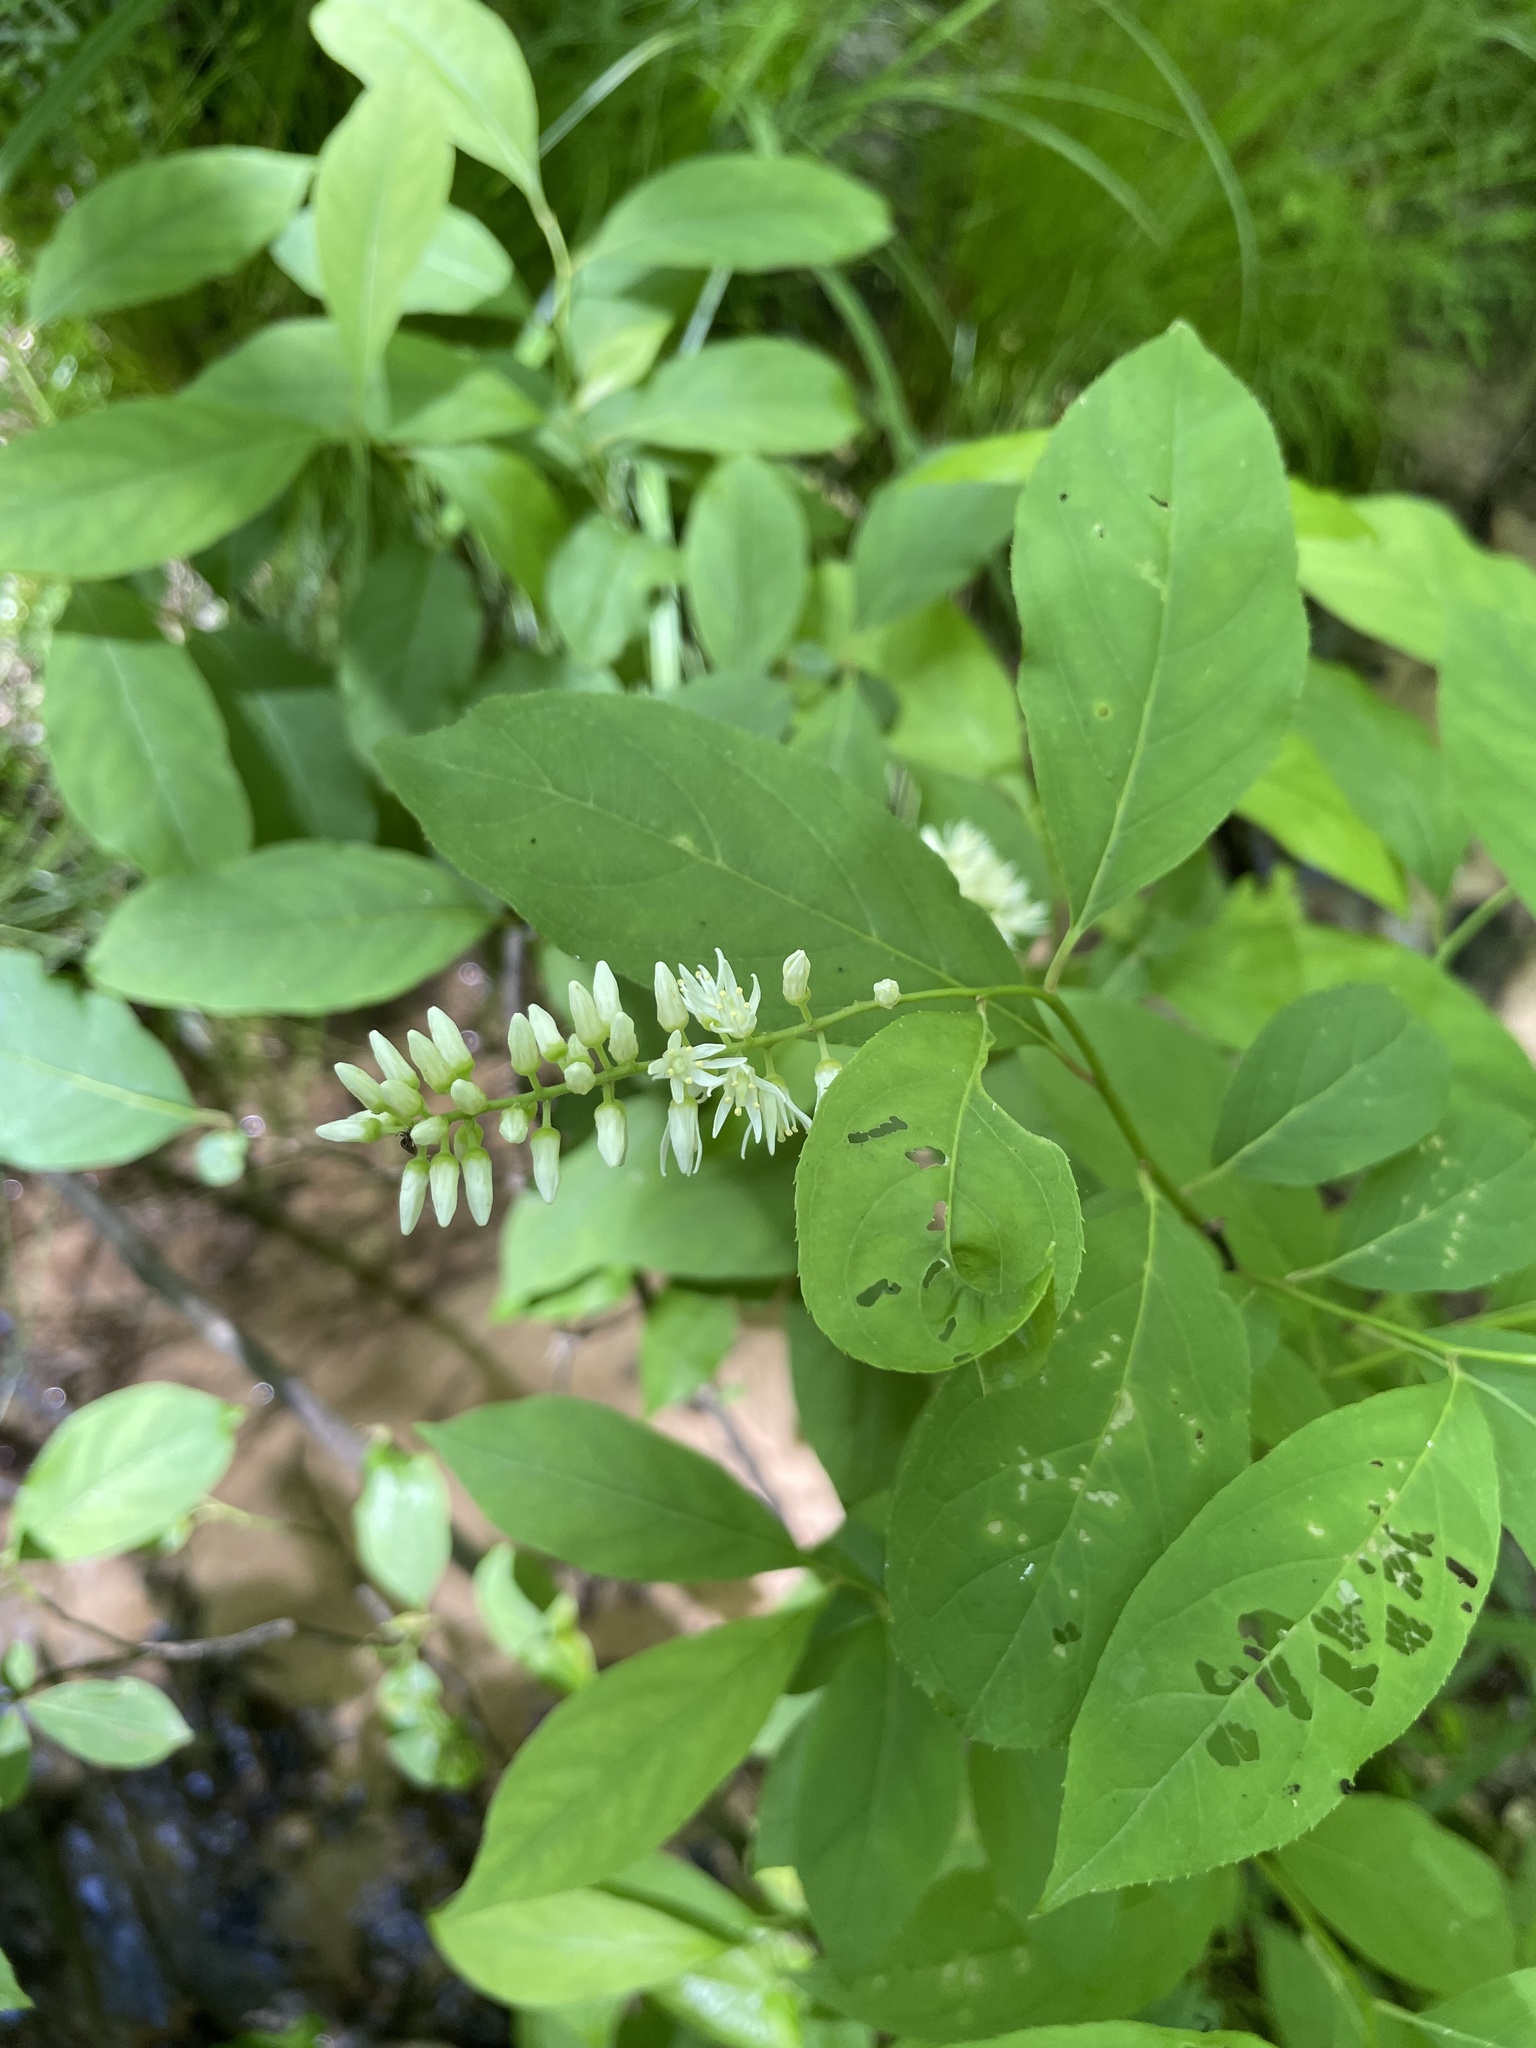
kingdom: Plantae
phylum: Tracheophyta
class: Magnoliopsida
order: Saxifragales
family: Iteaceae
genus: Itea
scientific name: Itea virginica
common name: Sweetspire
